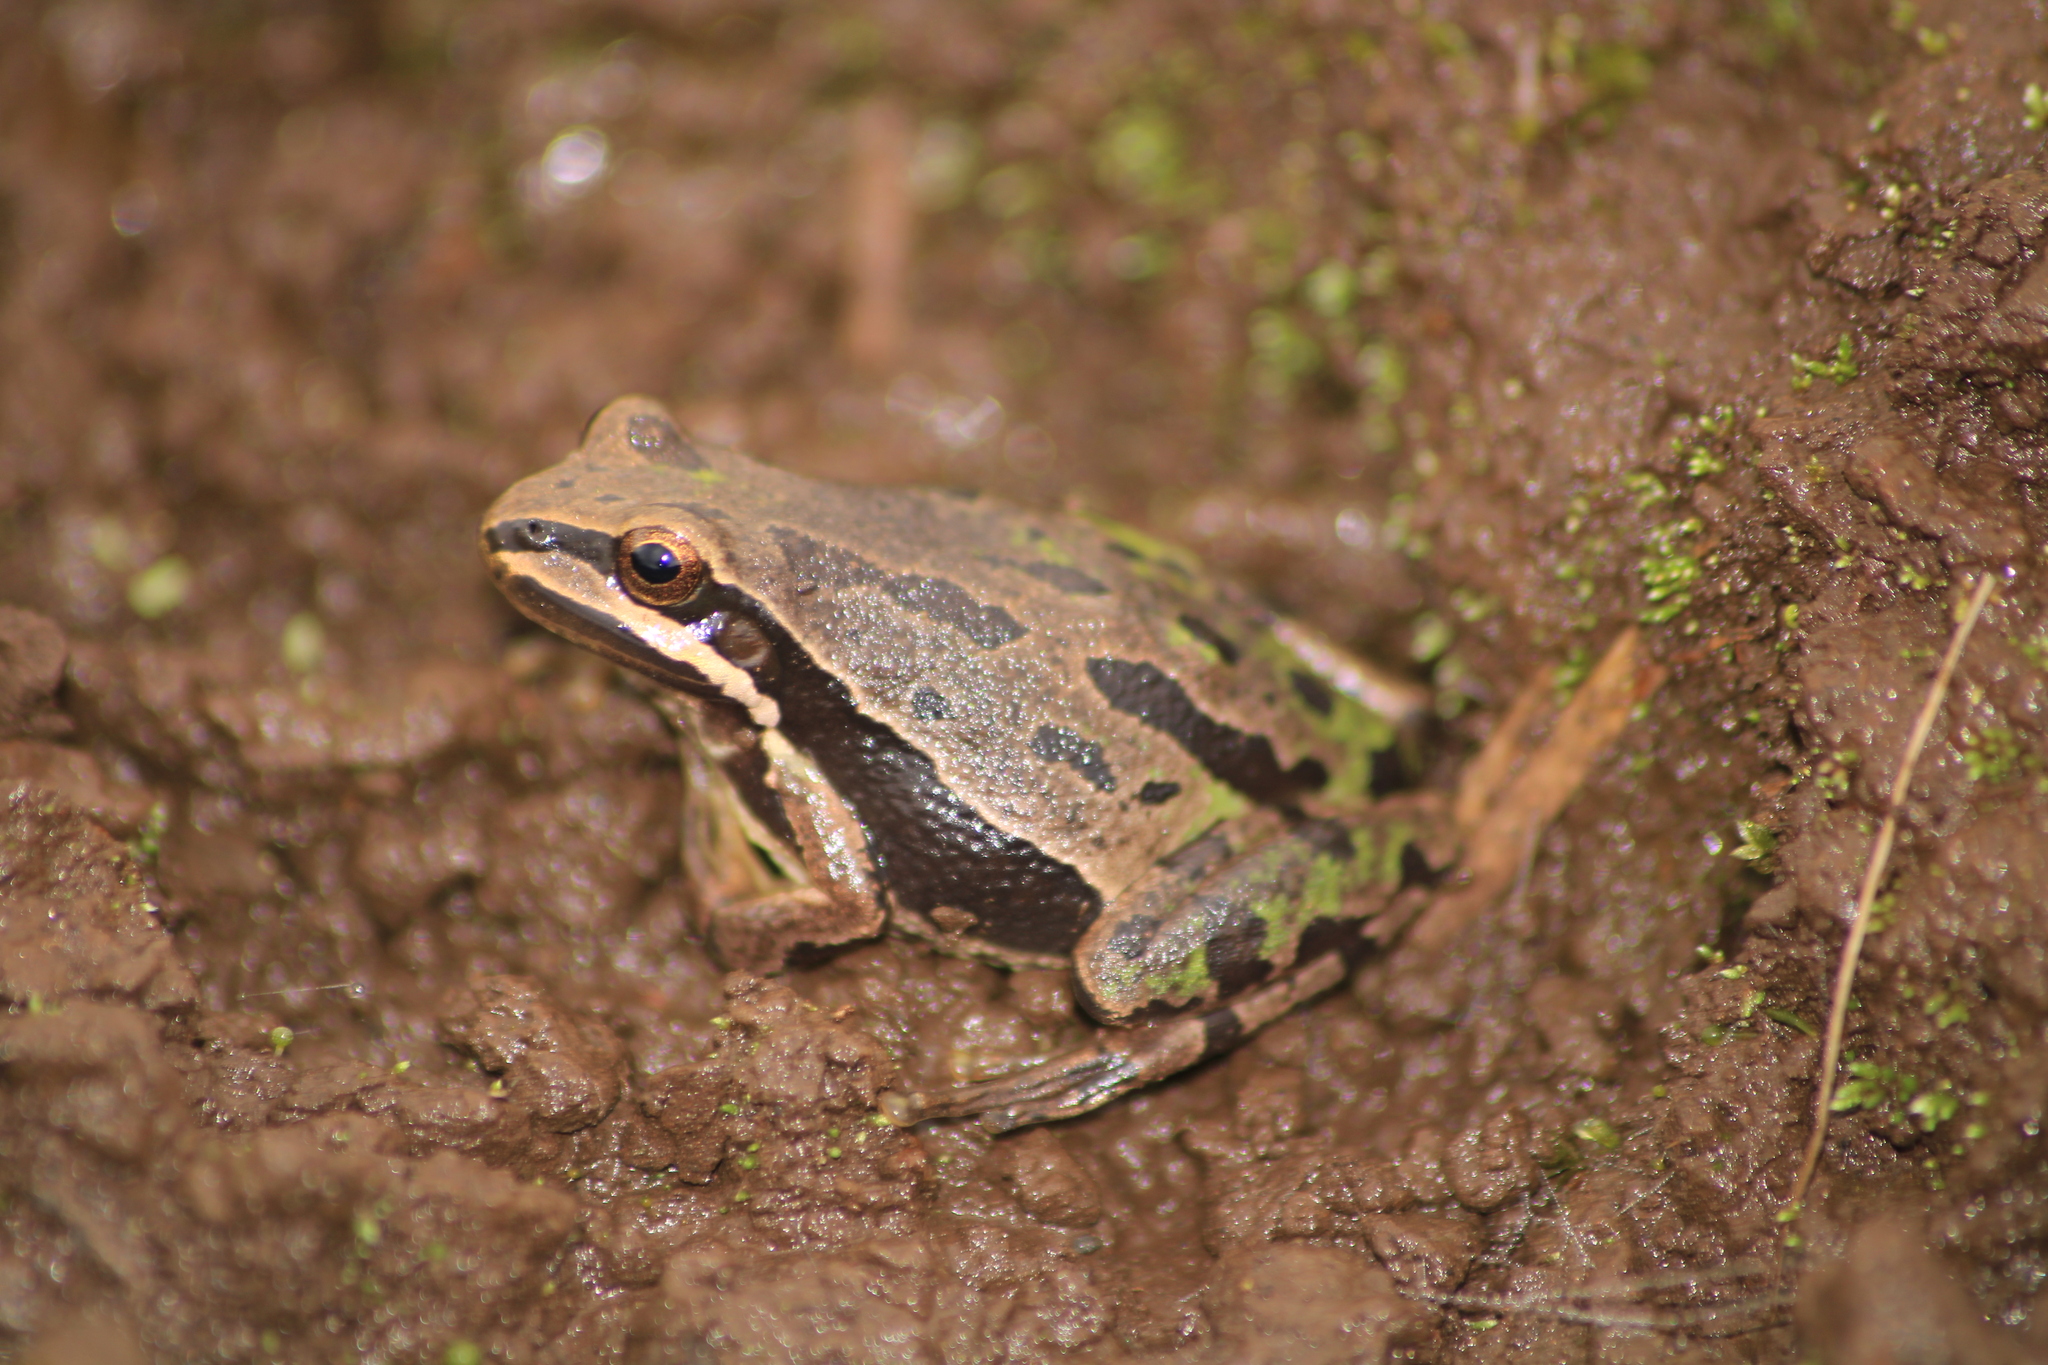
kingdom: Animalia
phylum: Chordata
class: Amphibia
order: Anura
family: Hylidae
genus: Dryophytes
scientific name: Dryophytes eximius
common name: Mountain treefrog
